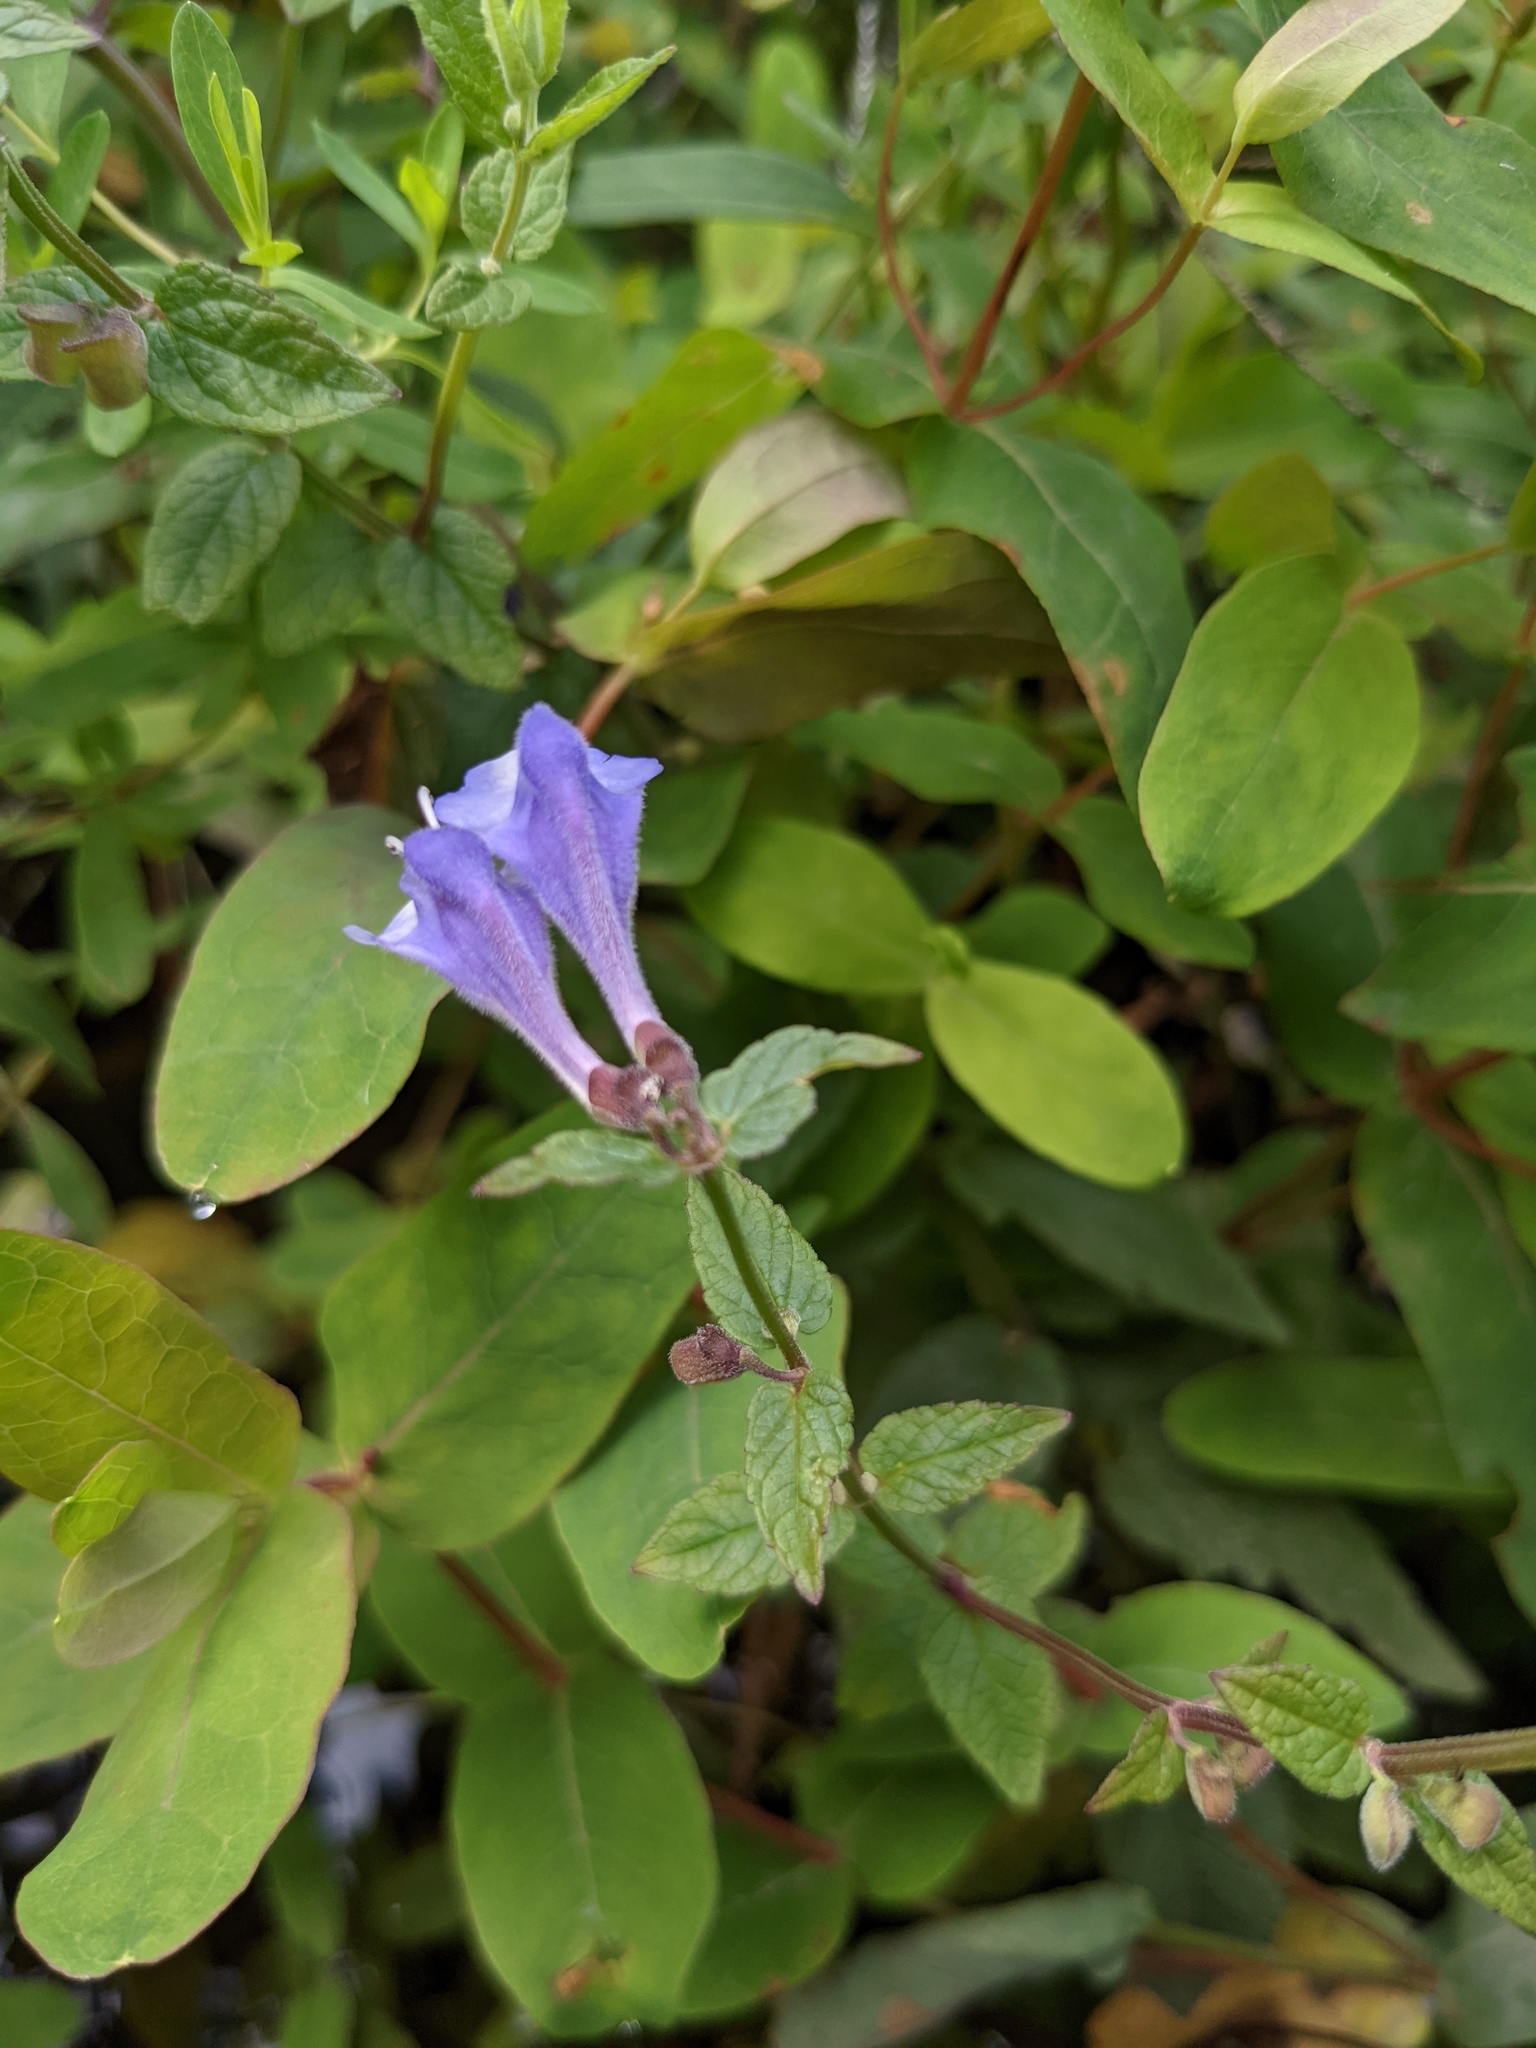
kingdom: Plantae
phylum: Tracheophyta
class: Magnoliopsida
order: Lamiales
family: Lamiaceae
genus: Scutellaria
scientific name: Scutellaria galericulata
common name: Skullcap
